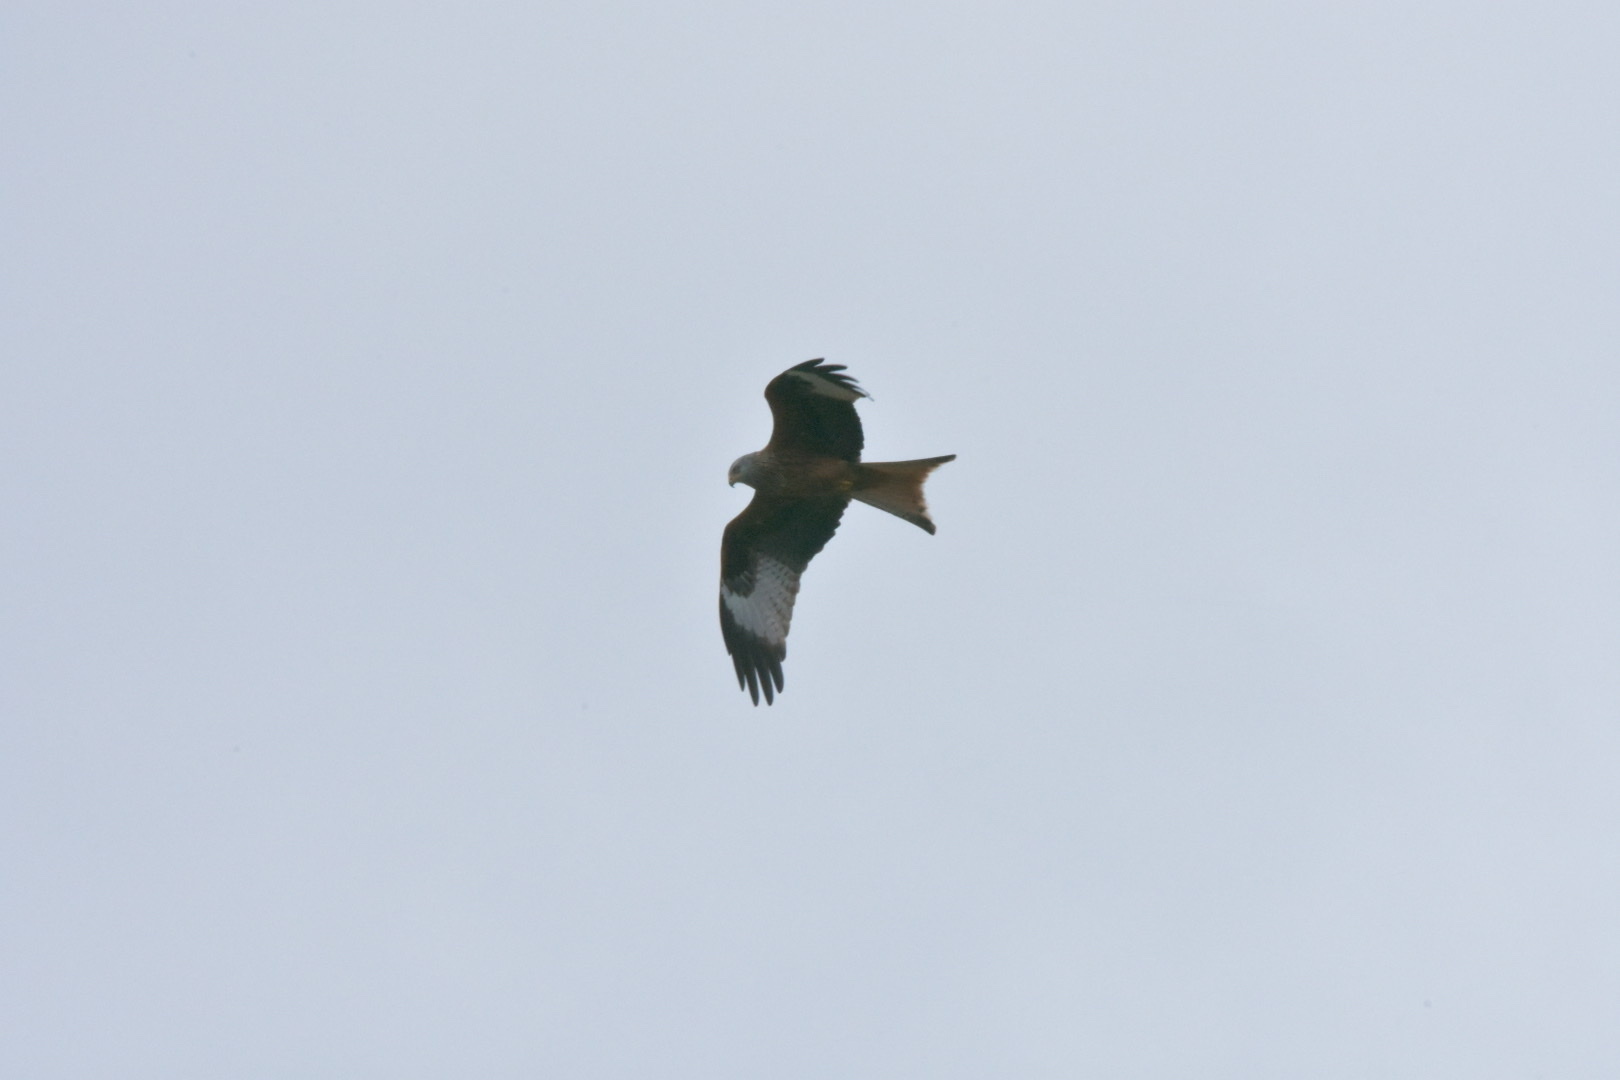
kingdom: Animalia
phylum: Chordata
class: Aves
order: Accipitriformes
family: Accipitridae
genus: Milvus
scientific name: Milvus milvus
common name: Red kite
